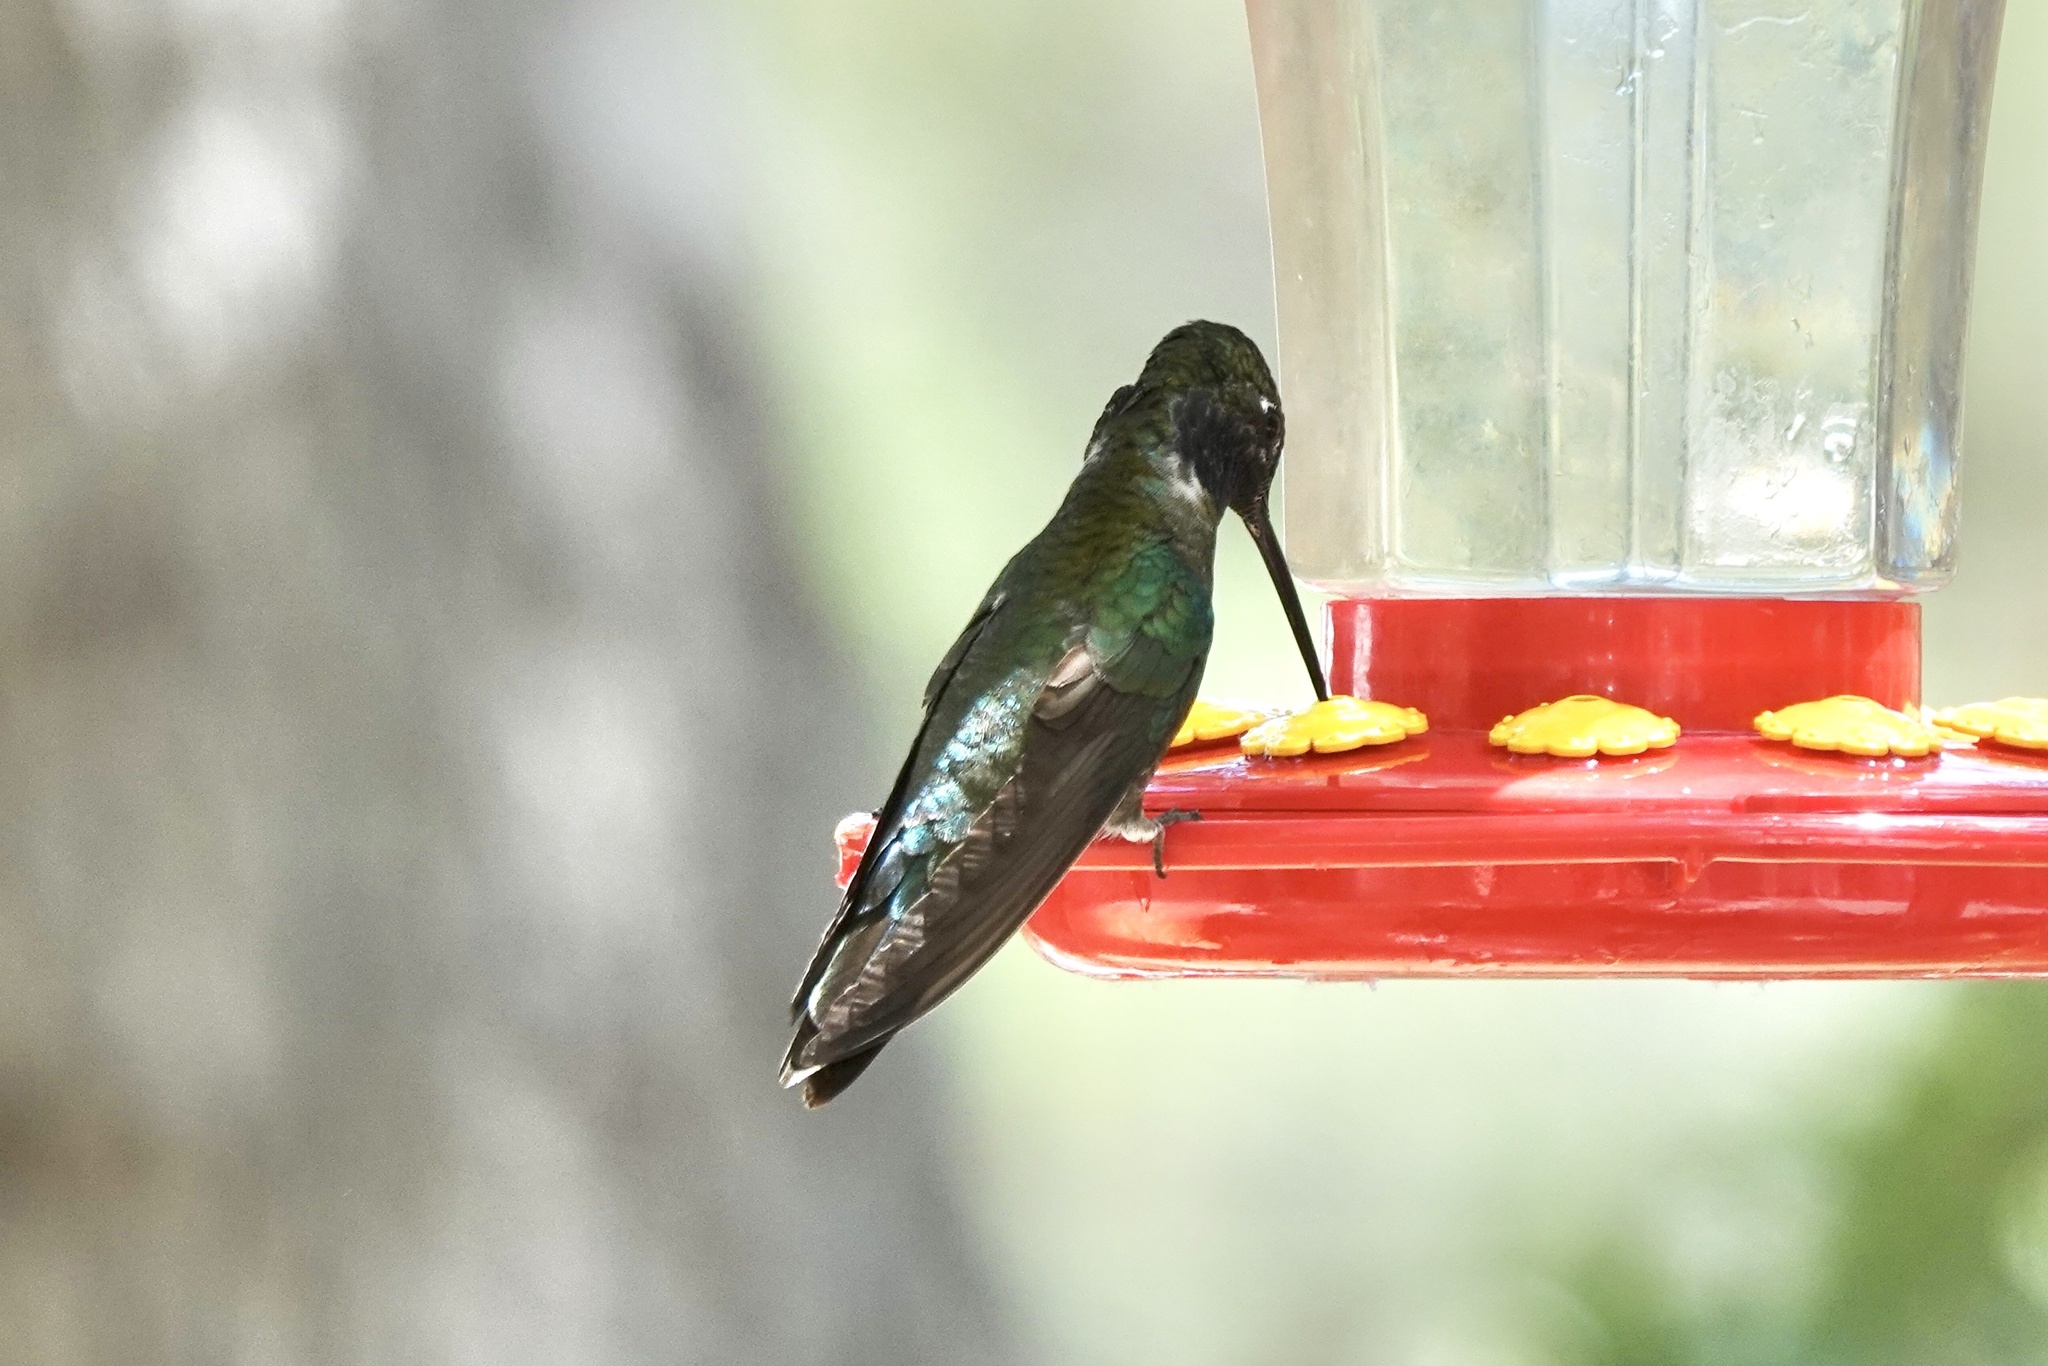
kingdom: Animalia
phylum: Chordata
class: Aves
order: Apodiformes
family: Trochilidae
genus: Eugenes
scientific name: Eugenes fulgens
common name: Magnificent hummingbird
